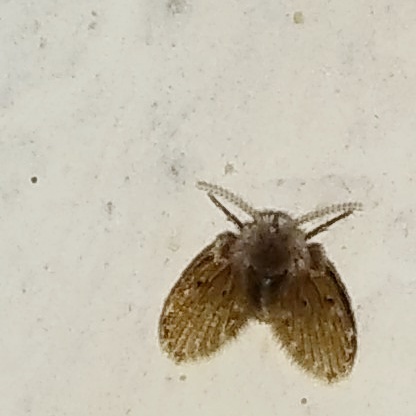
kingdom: Animalia
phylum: Arthropoda
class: Insecta
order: Diptera
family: Psychodidae
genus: Clogmia
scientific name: Clogmia albipunctatus
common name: White-spotted moth fly
